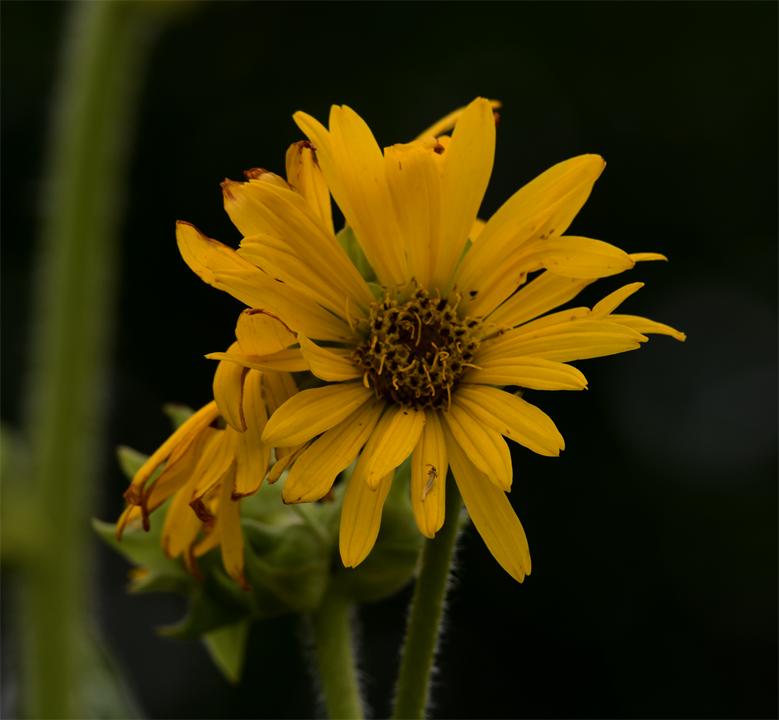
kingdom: Plantae
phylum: Tracheophyta
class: Magnoliopsida
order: Asterales
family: Asteraceae
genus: Silphium
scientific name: Silphium laciniatum
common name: Polarplant
